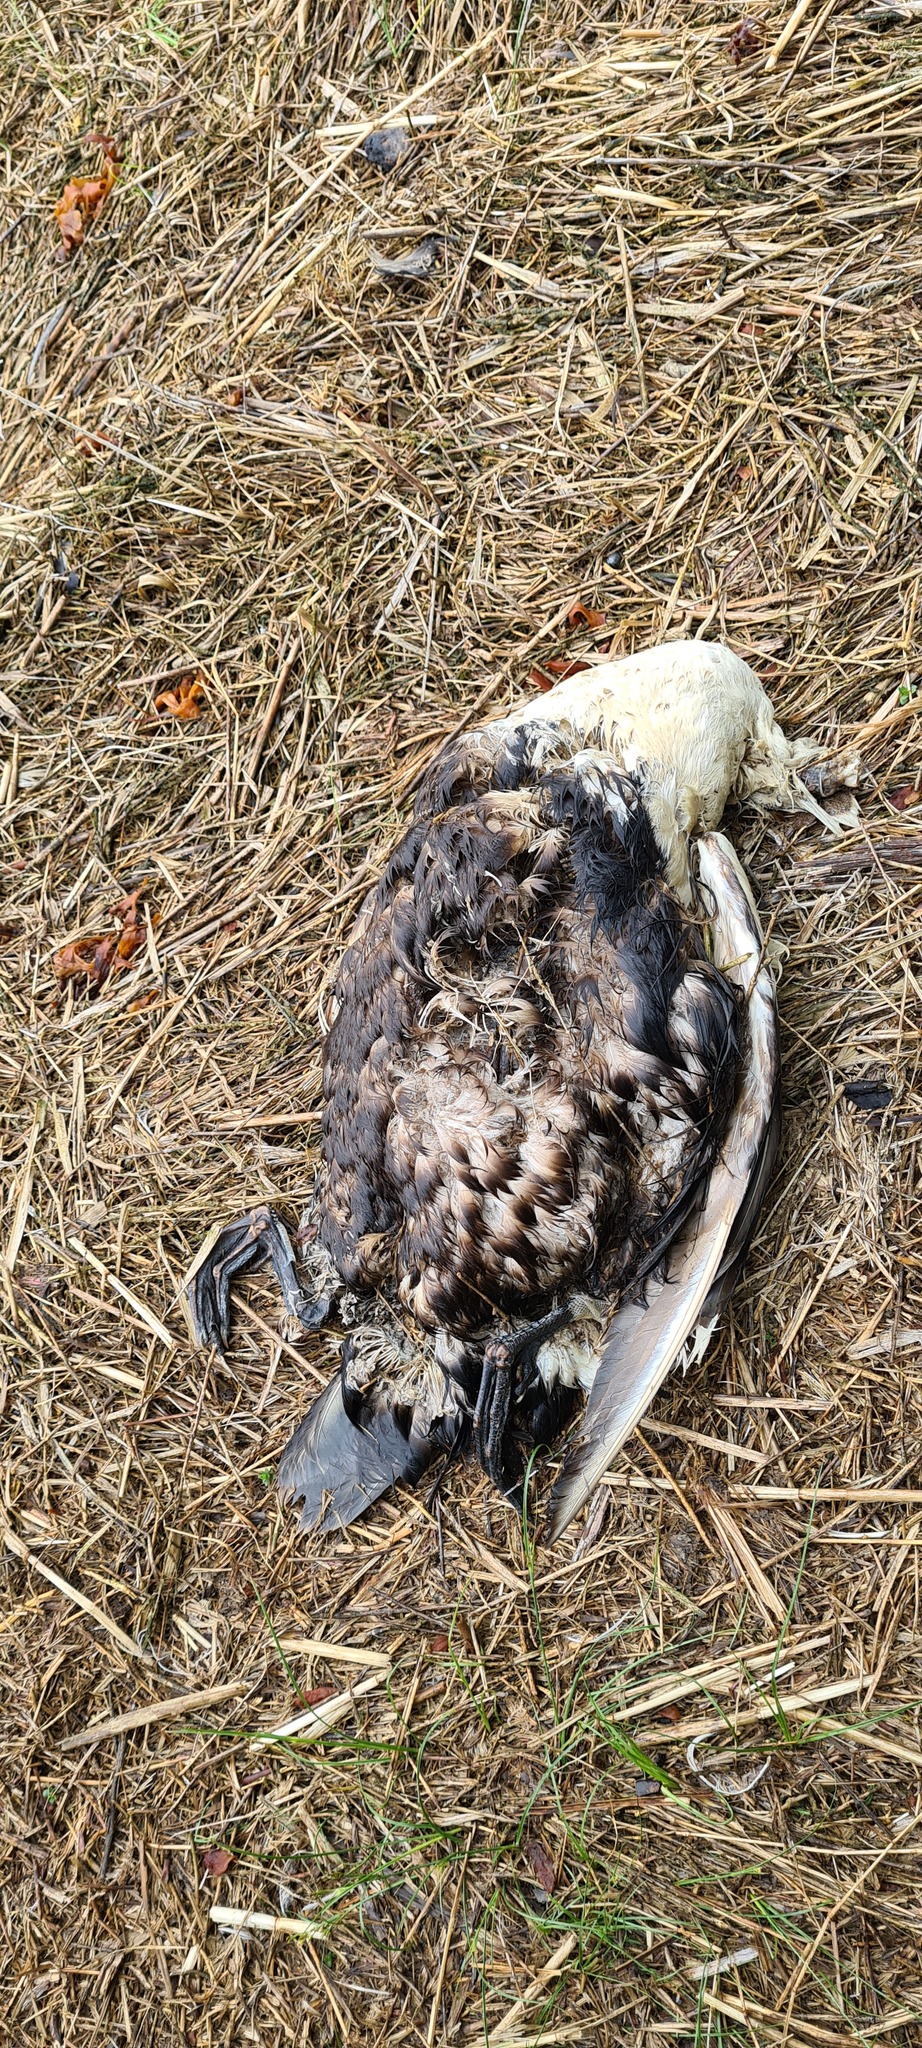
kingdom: Animalia
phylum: Chordata
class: Aves
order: Anseriformes
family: Anatidae
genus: Somateria
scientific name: Somateria mollissima
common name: Common eider
